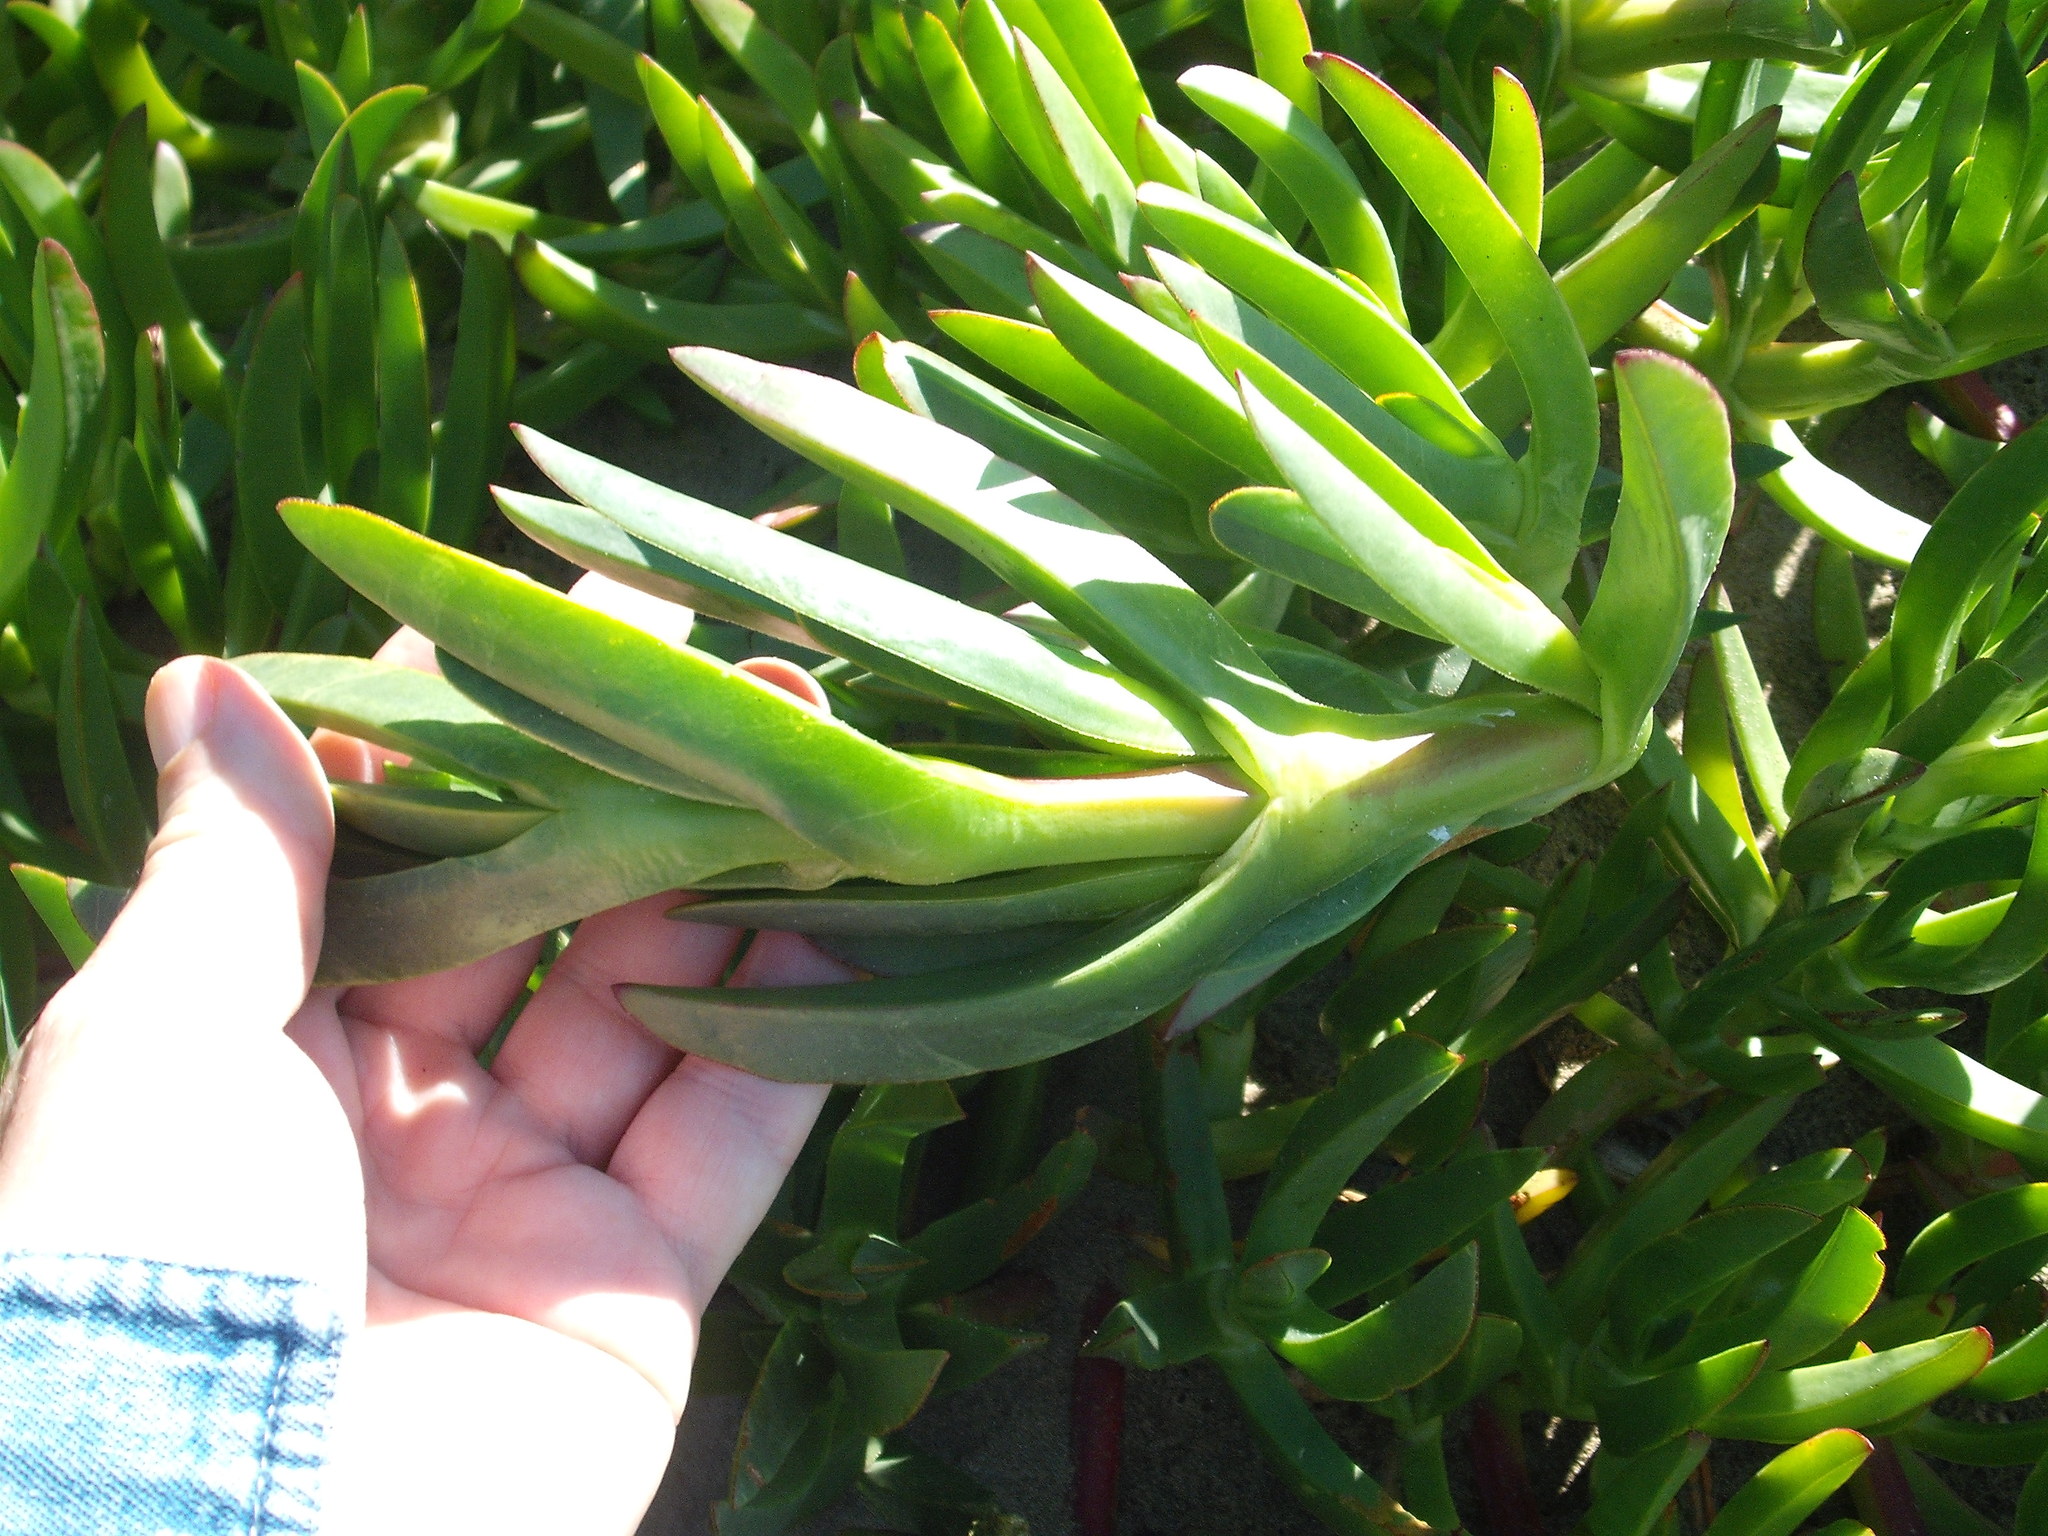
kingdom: Plantae
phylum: Tracheophyta
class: Magnoliopsida
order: Caryophyllales
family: Aizoaceae
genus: Carpobrotus
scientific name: Carpobrotus edulis
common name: Hottentot-fig
